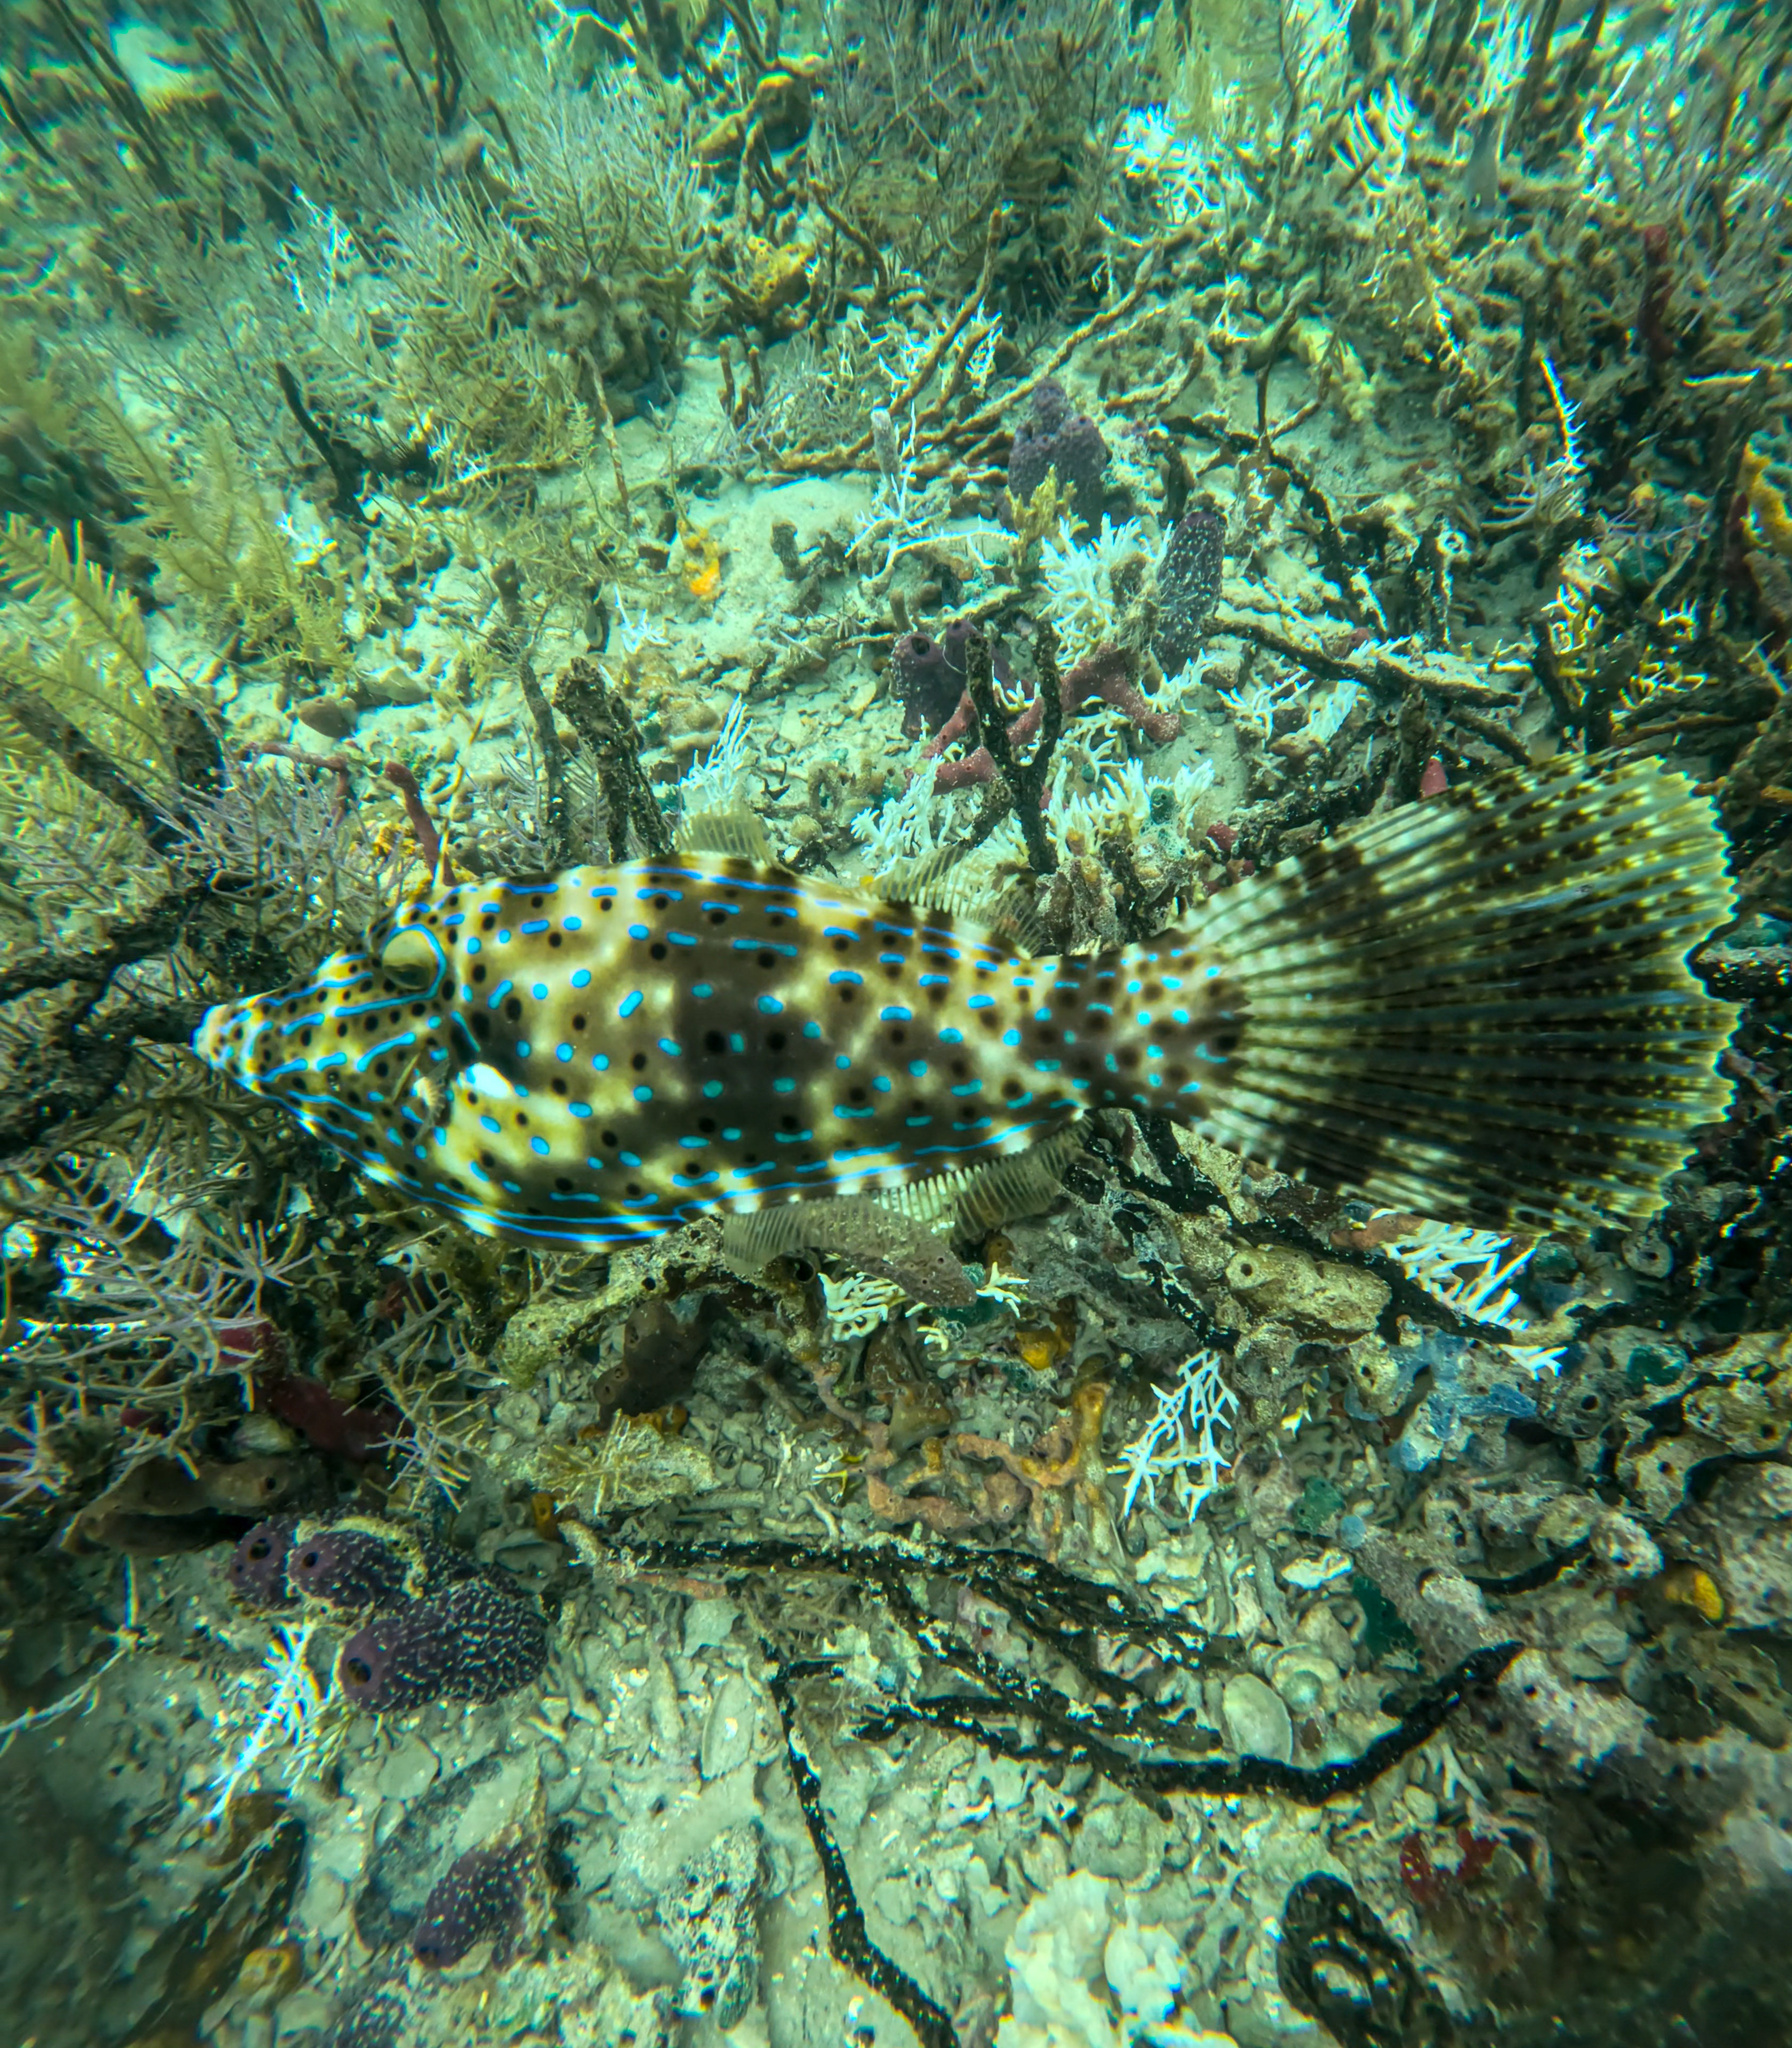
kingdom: Animalia
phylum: Chordata
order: Tetraodontiformes
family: Monacanthidae
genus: Aluterus
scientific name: Aluterus scriptus
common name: Scribbled leatherjacket filefish
